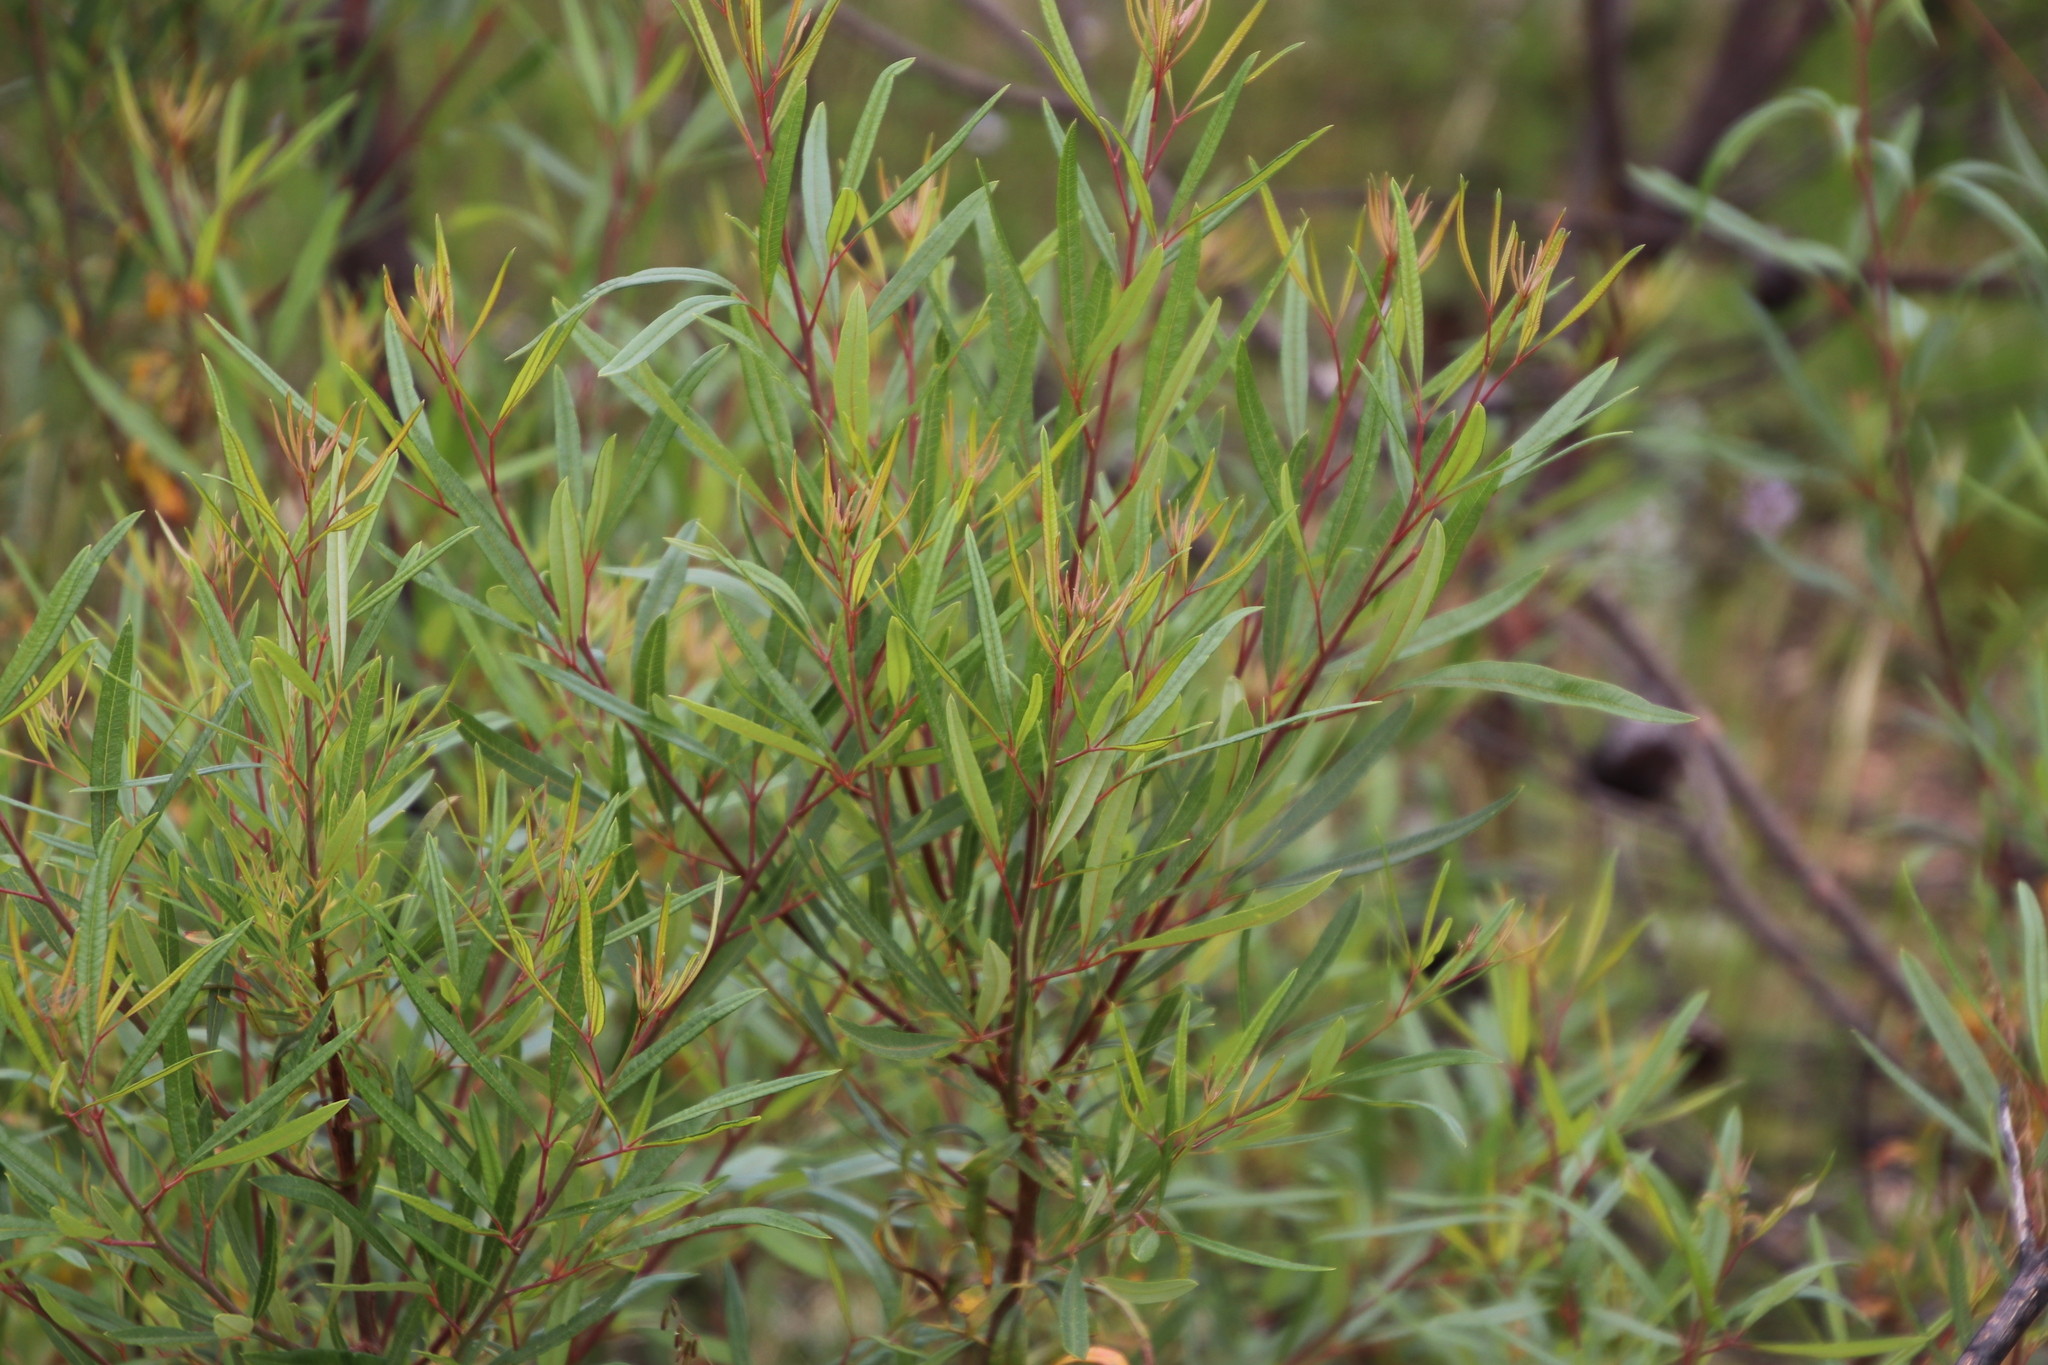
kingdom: Plantae
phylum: Tracheophyta
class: Magnoliopsida
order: Sapindales
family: Anacardiaceae
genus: Searsia
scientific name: Searsia angustifolia
